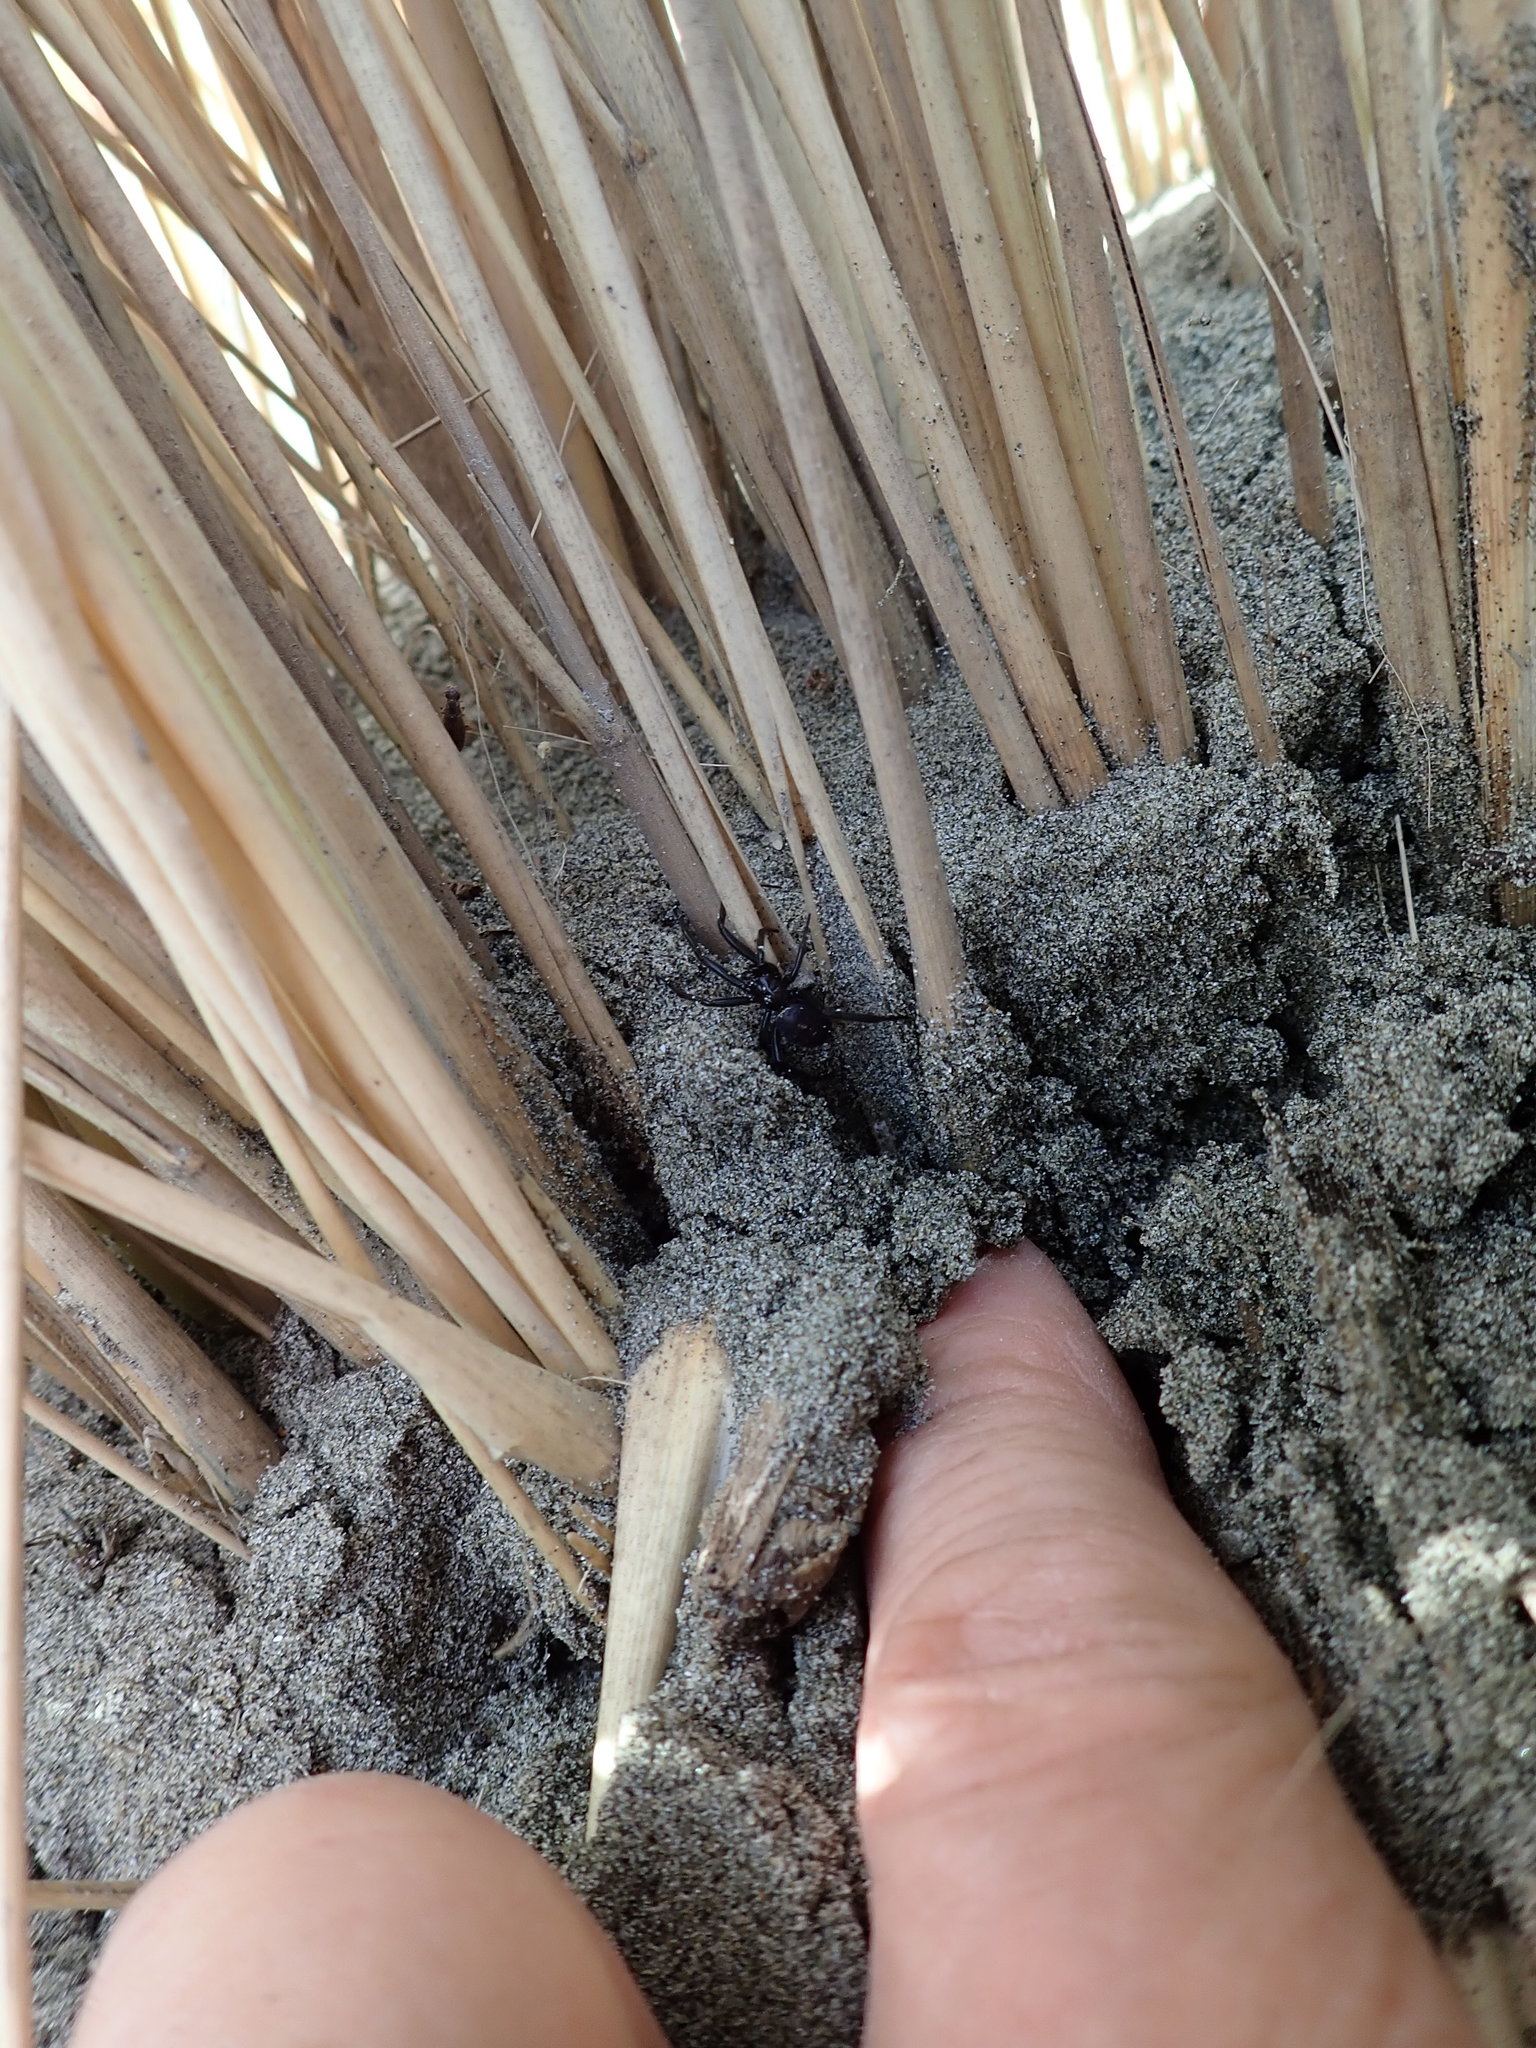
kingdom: Animalia
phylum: Arthropoda
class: Arachnida
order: Araneae
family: Theridiidae
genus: Steatoda
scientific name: Steatoda capensis
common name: Cobweb weaver
